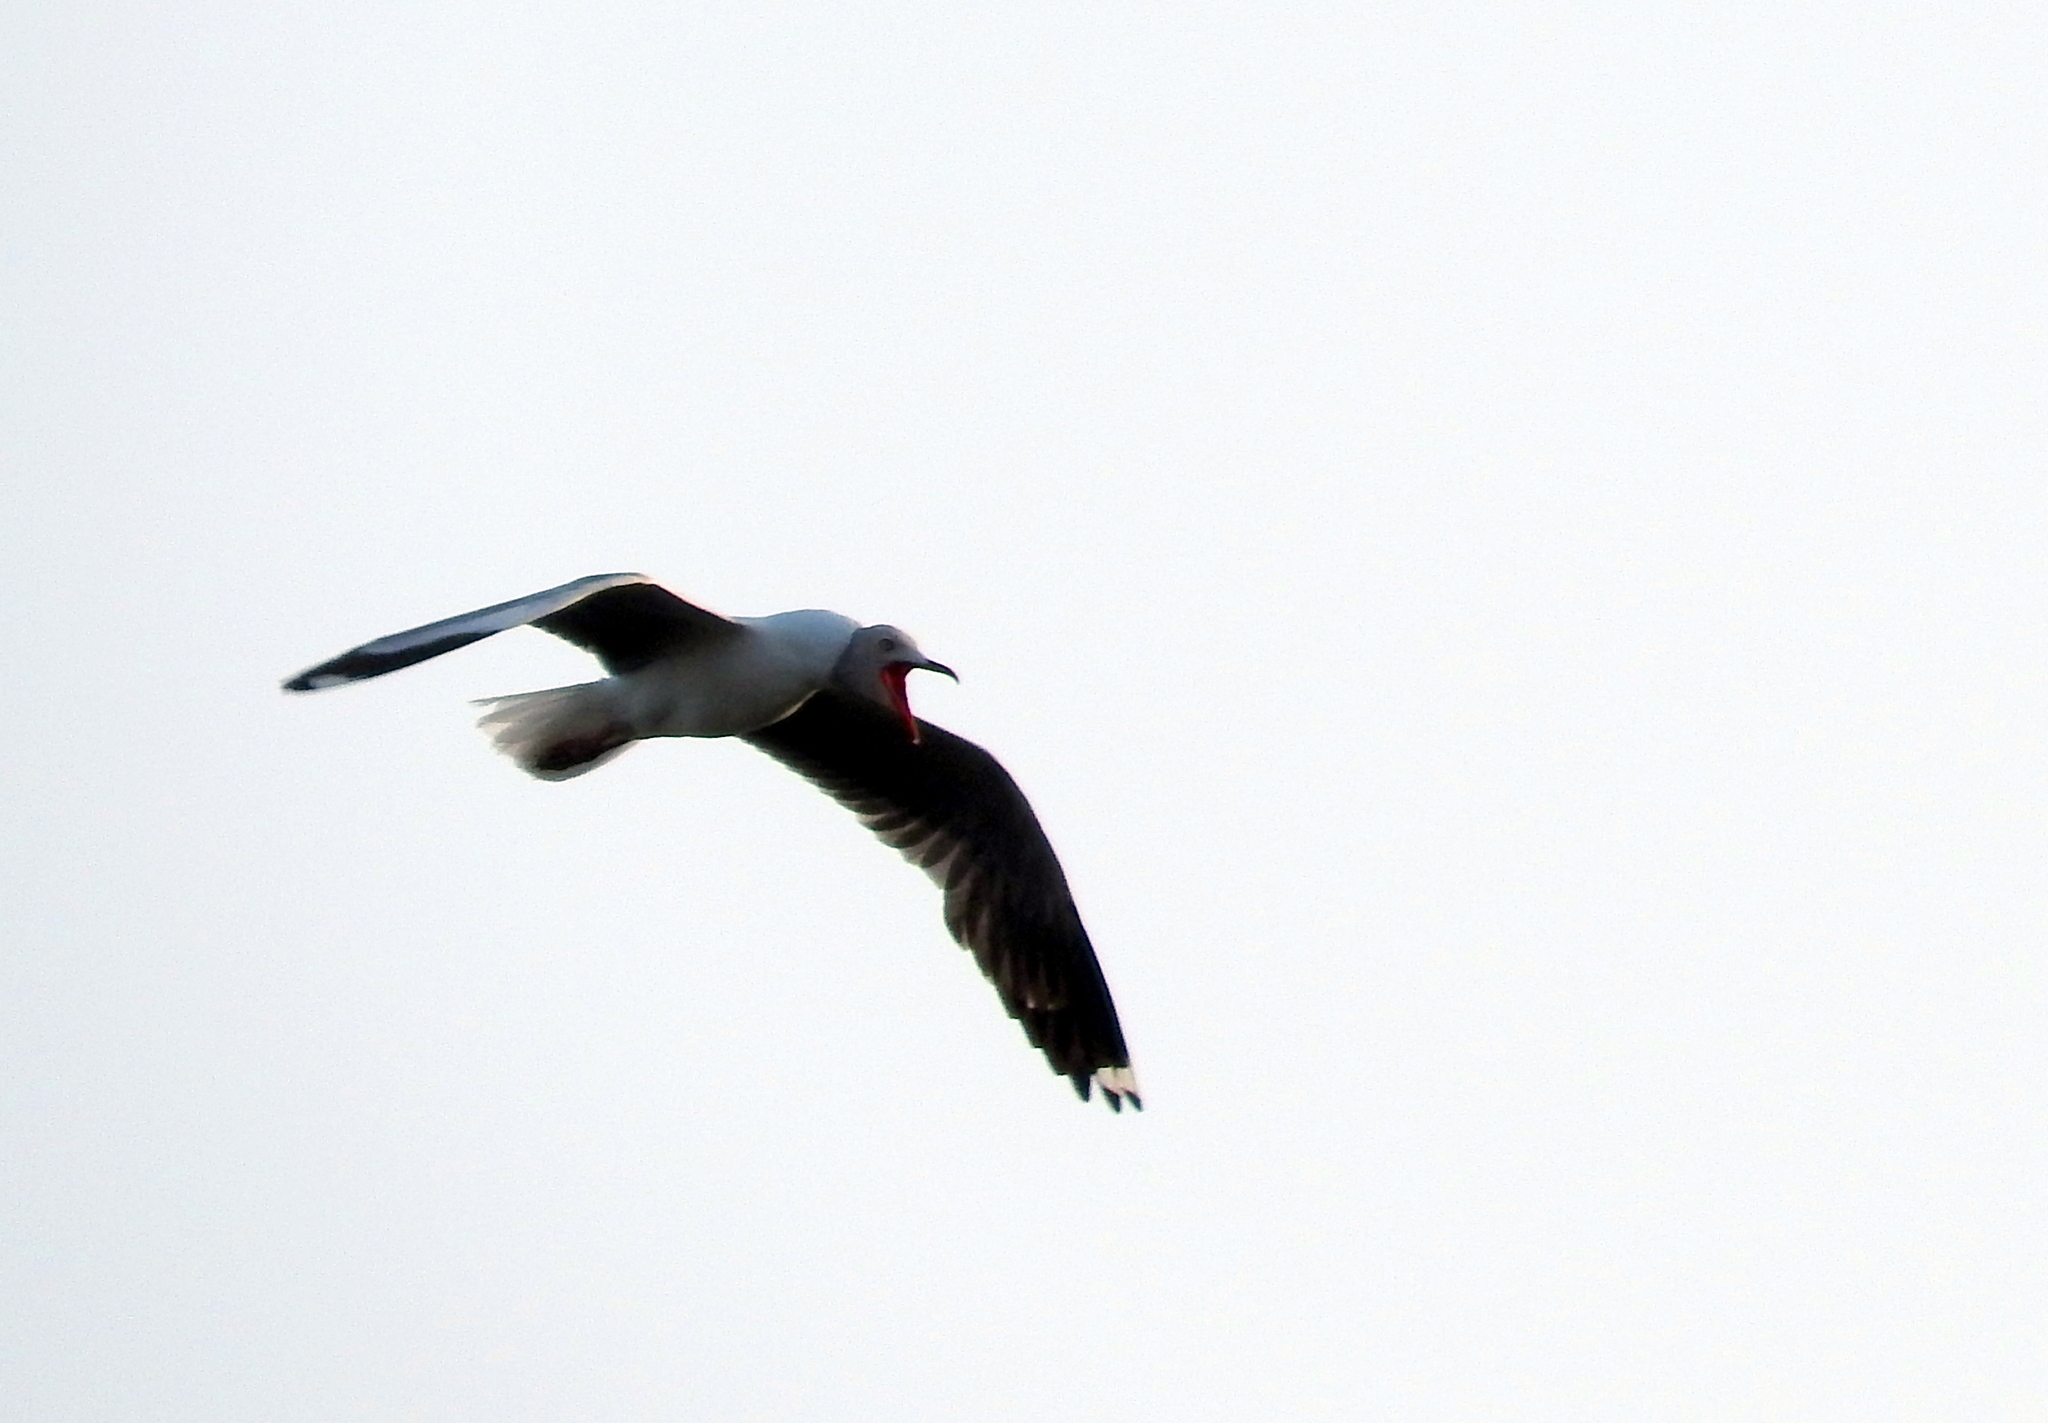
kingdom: Animalia
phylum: Chordata
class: Aves
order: Charadriiformes
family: Laridae
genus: Chroicocephalus
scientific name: Chroicocephalus cirrocephalus
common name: Grey-headed gull
